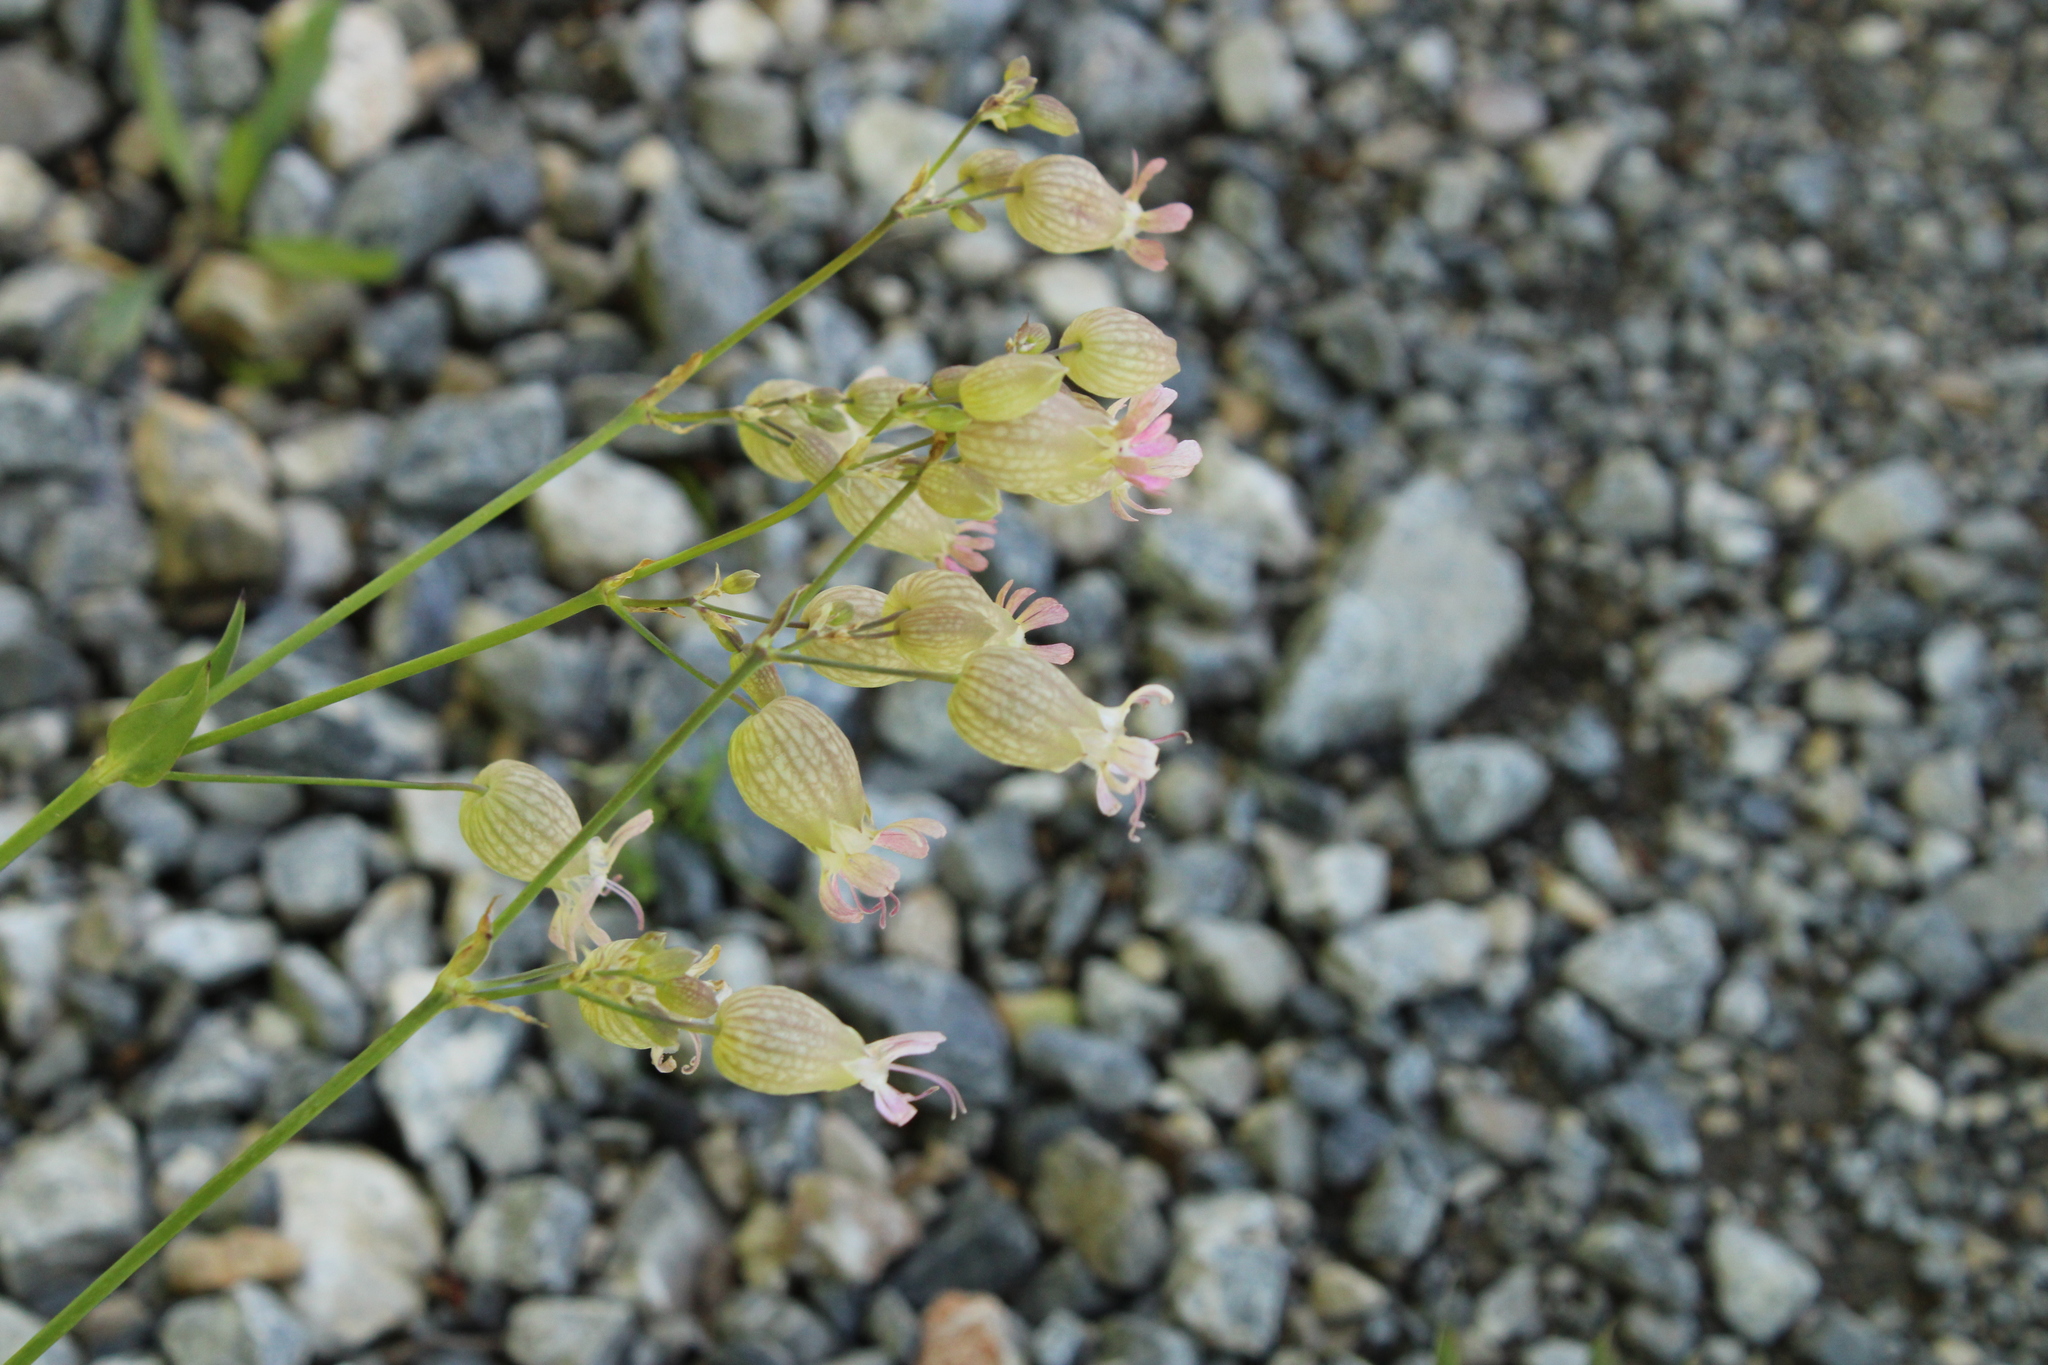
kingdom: Plantae
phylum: Tracheophyta
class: Magnoliopsida
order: Caryophyllales
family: Caryophyllaceae
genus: Silene
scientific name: Silene vulgaris
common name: Bladder campion
